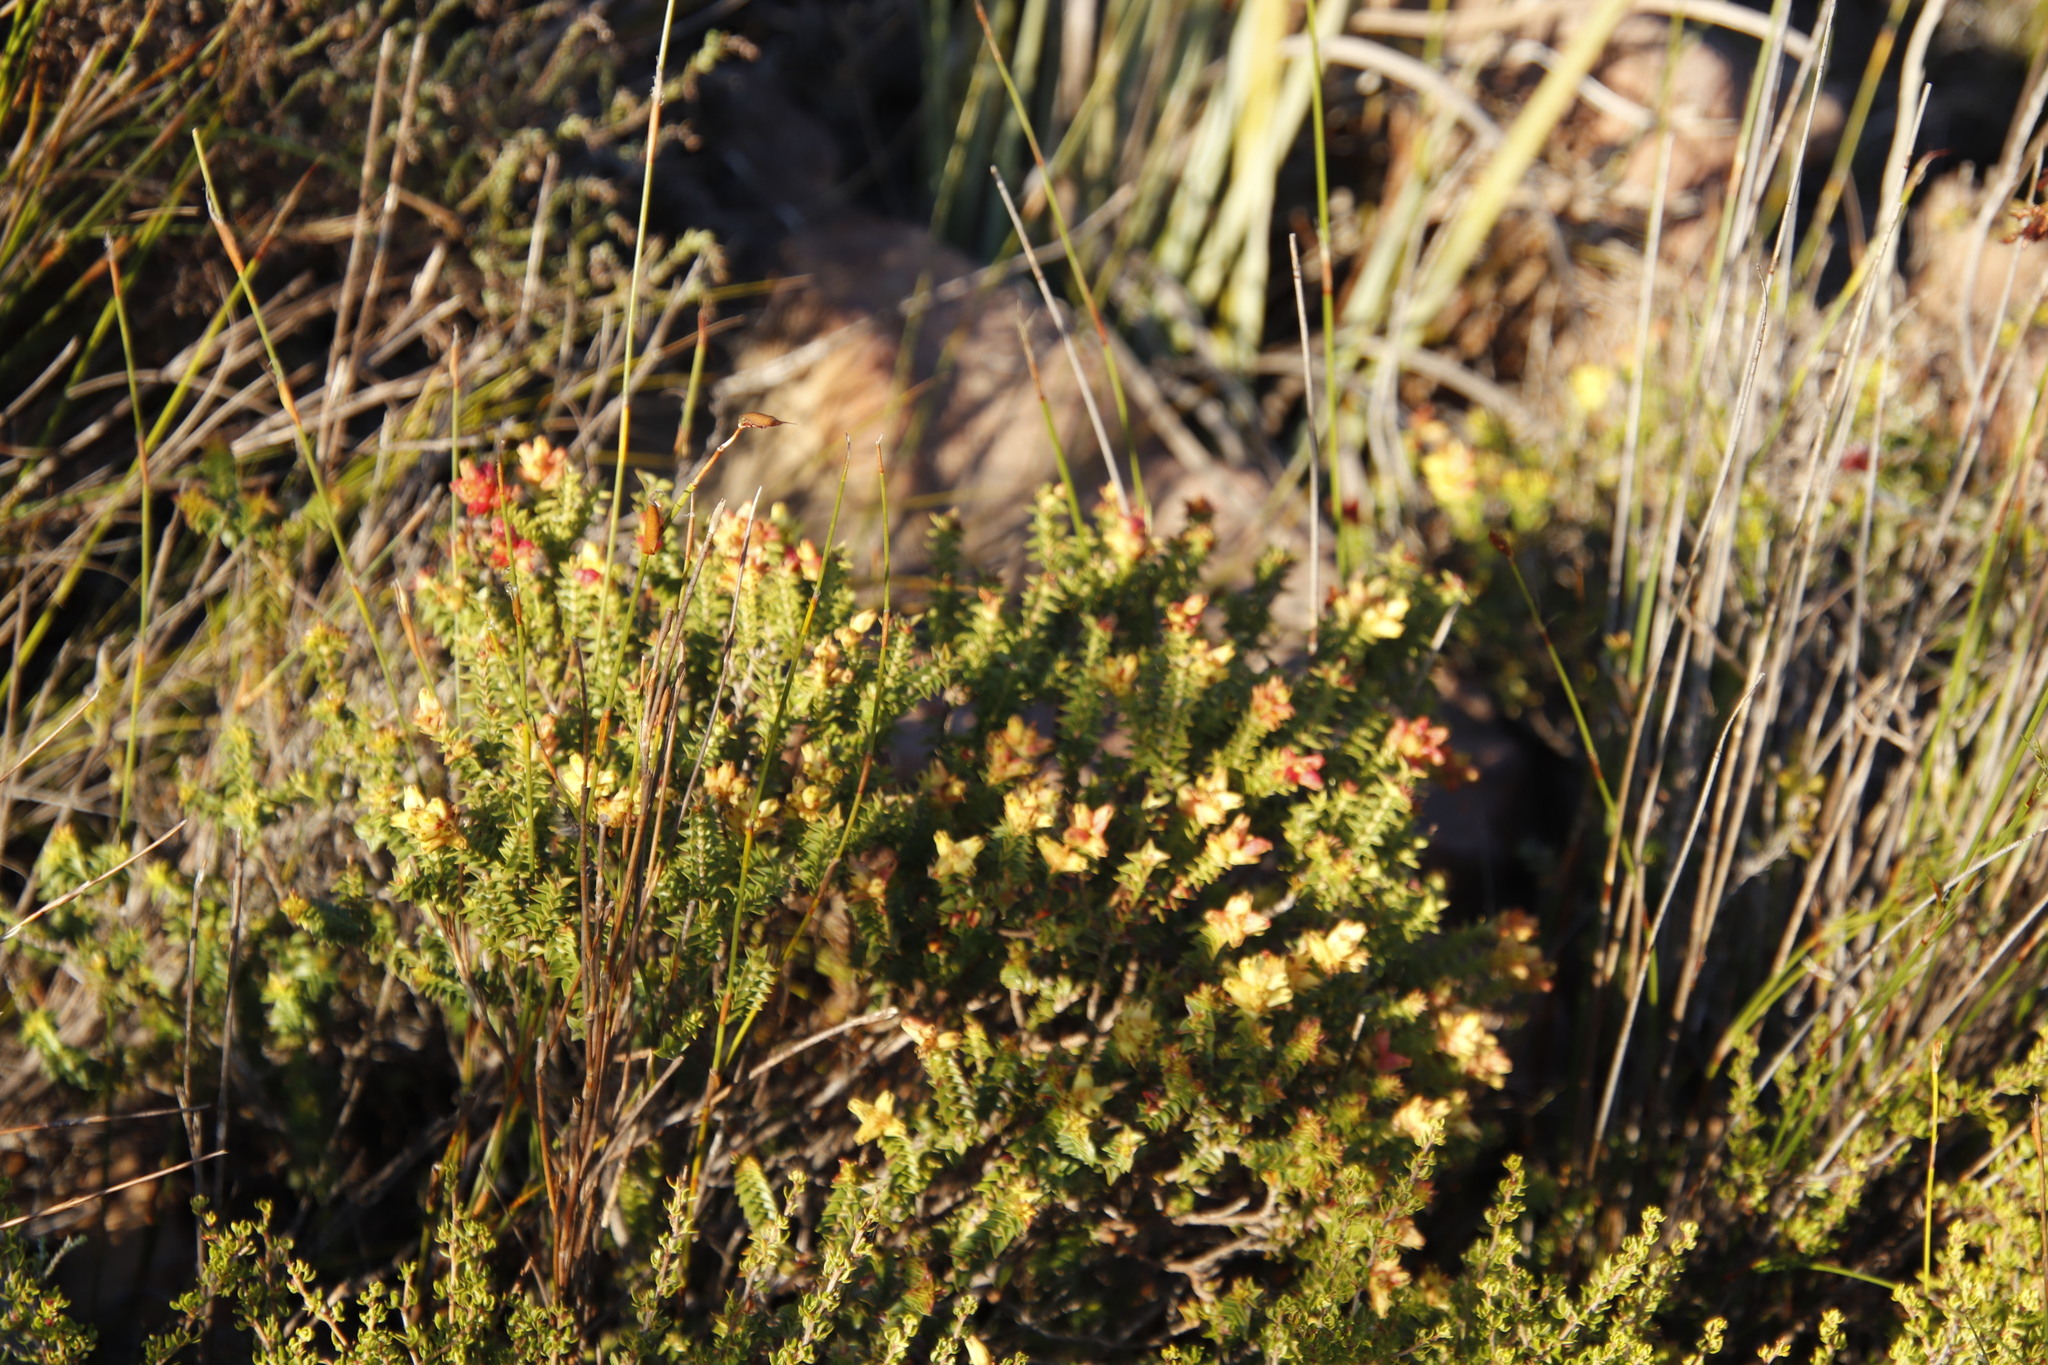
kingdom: Plantae
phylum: Tracheophyta
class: Magnoliopsida
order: Myrtales
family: Penaeaceae
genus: Penaea
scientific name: Penaea mucronata
